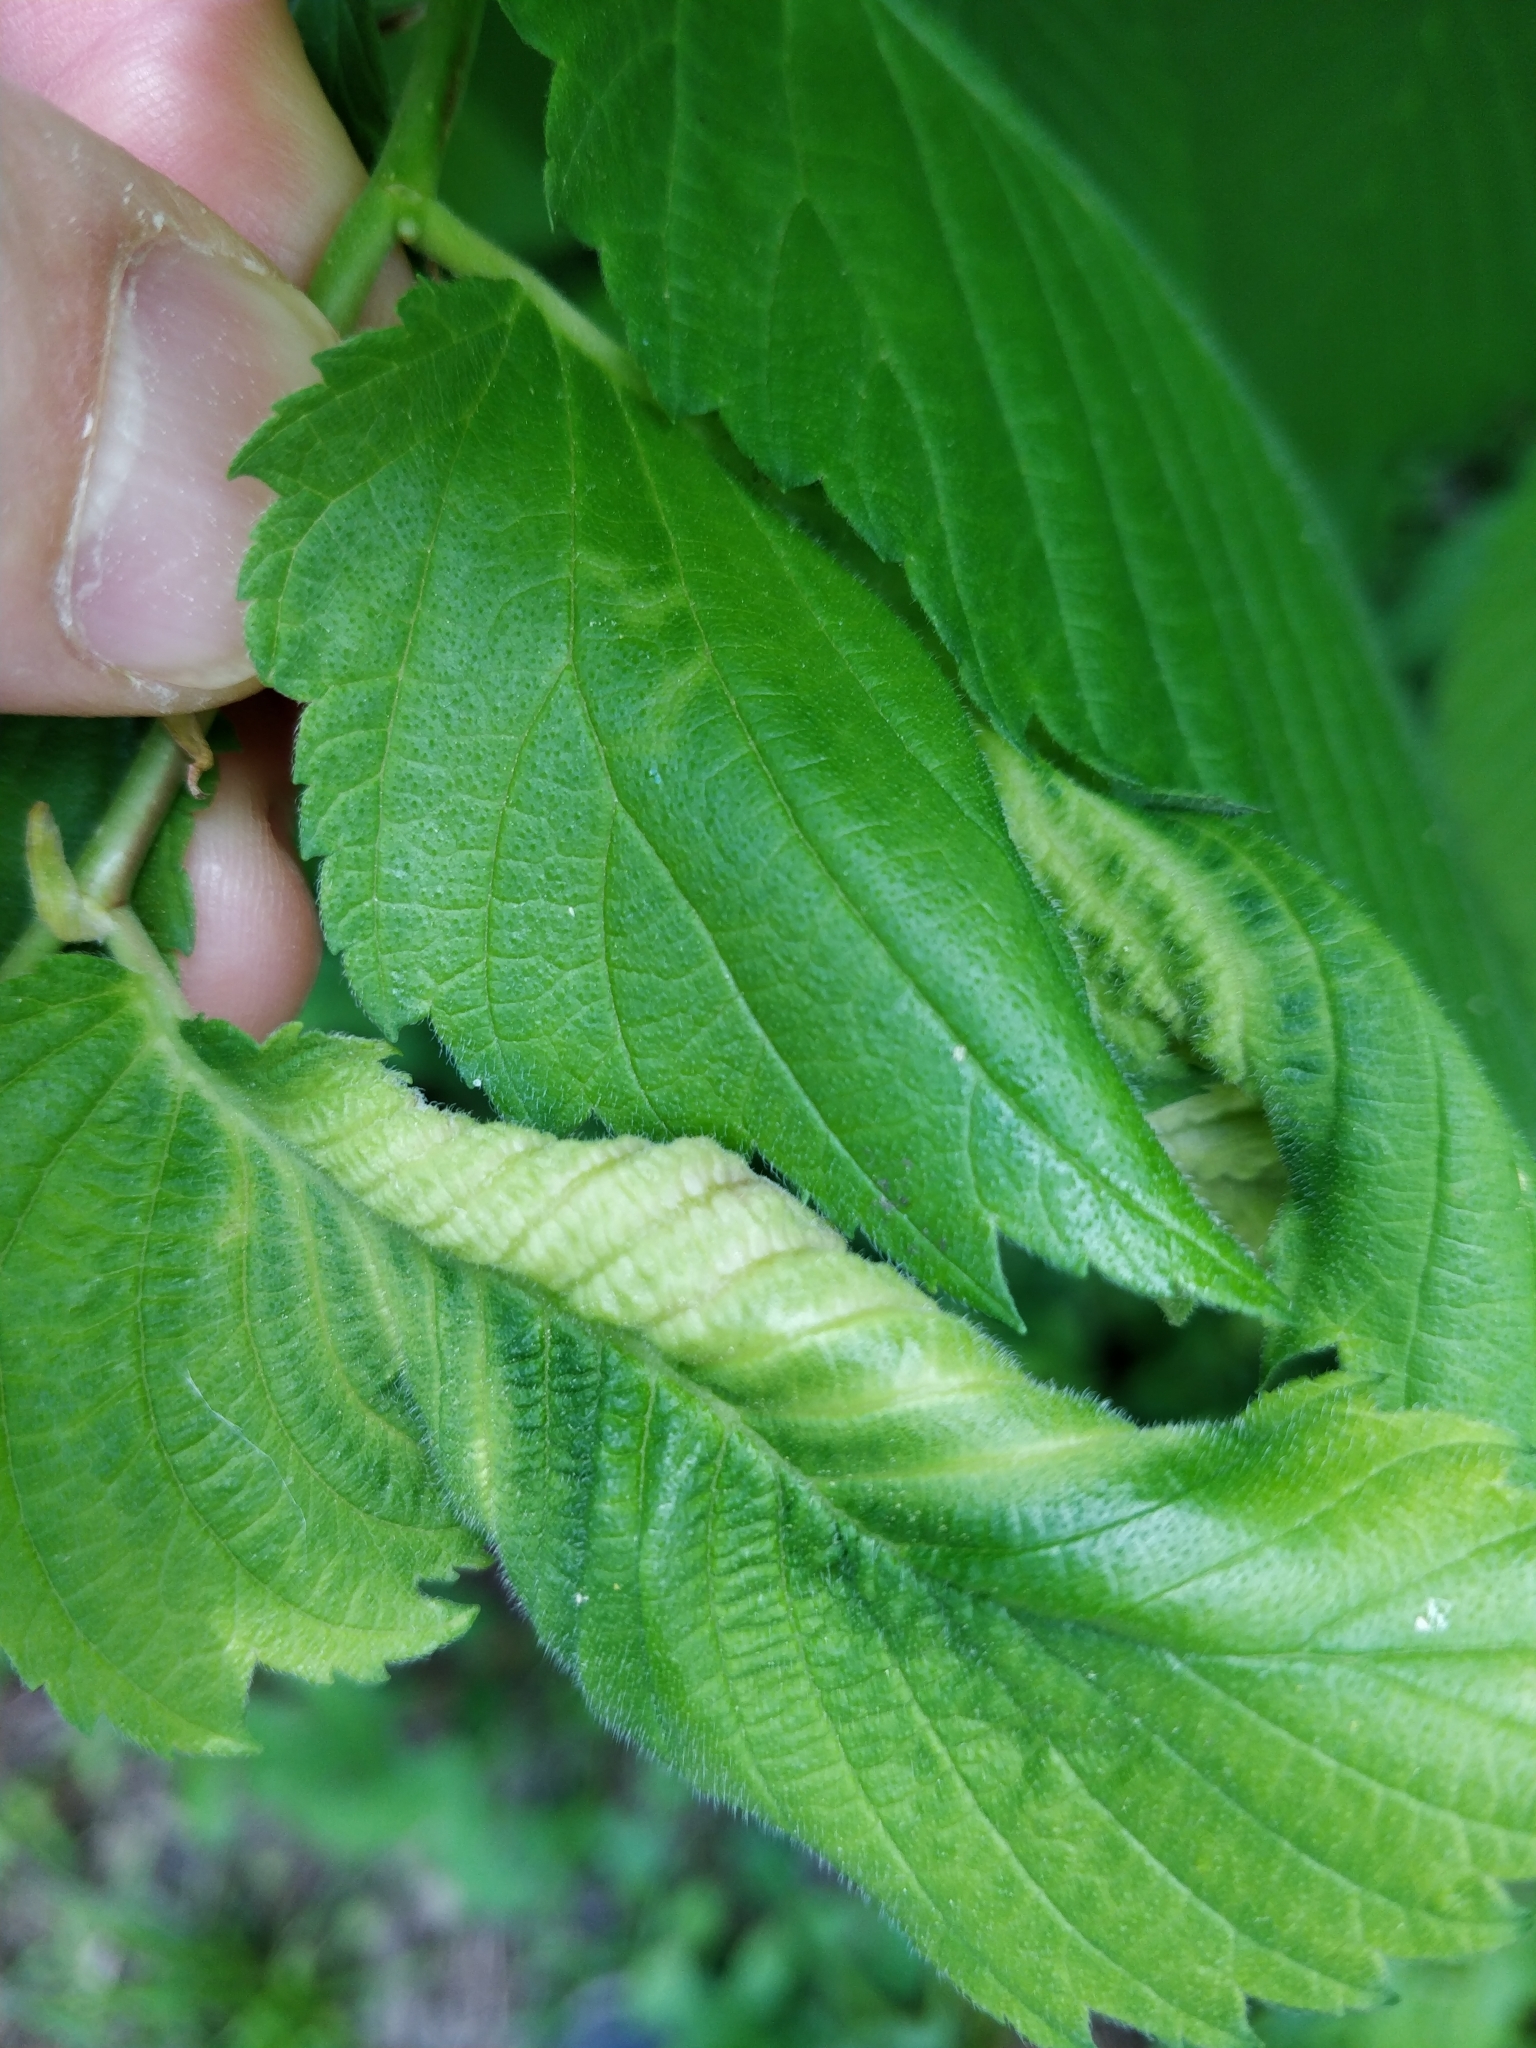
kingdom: Animalia
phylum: Arthropoda
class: Insecta
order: Hemiptera
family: Aphididae
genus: Eriosoma
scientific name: Eriosoma americanum
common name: Woolly elm aphid
